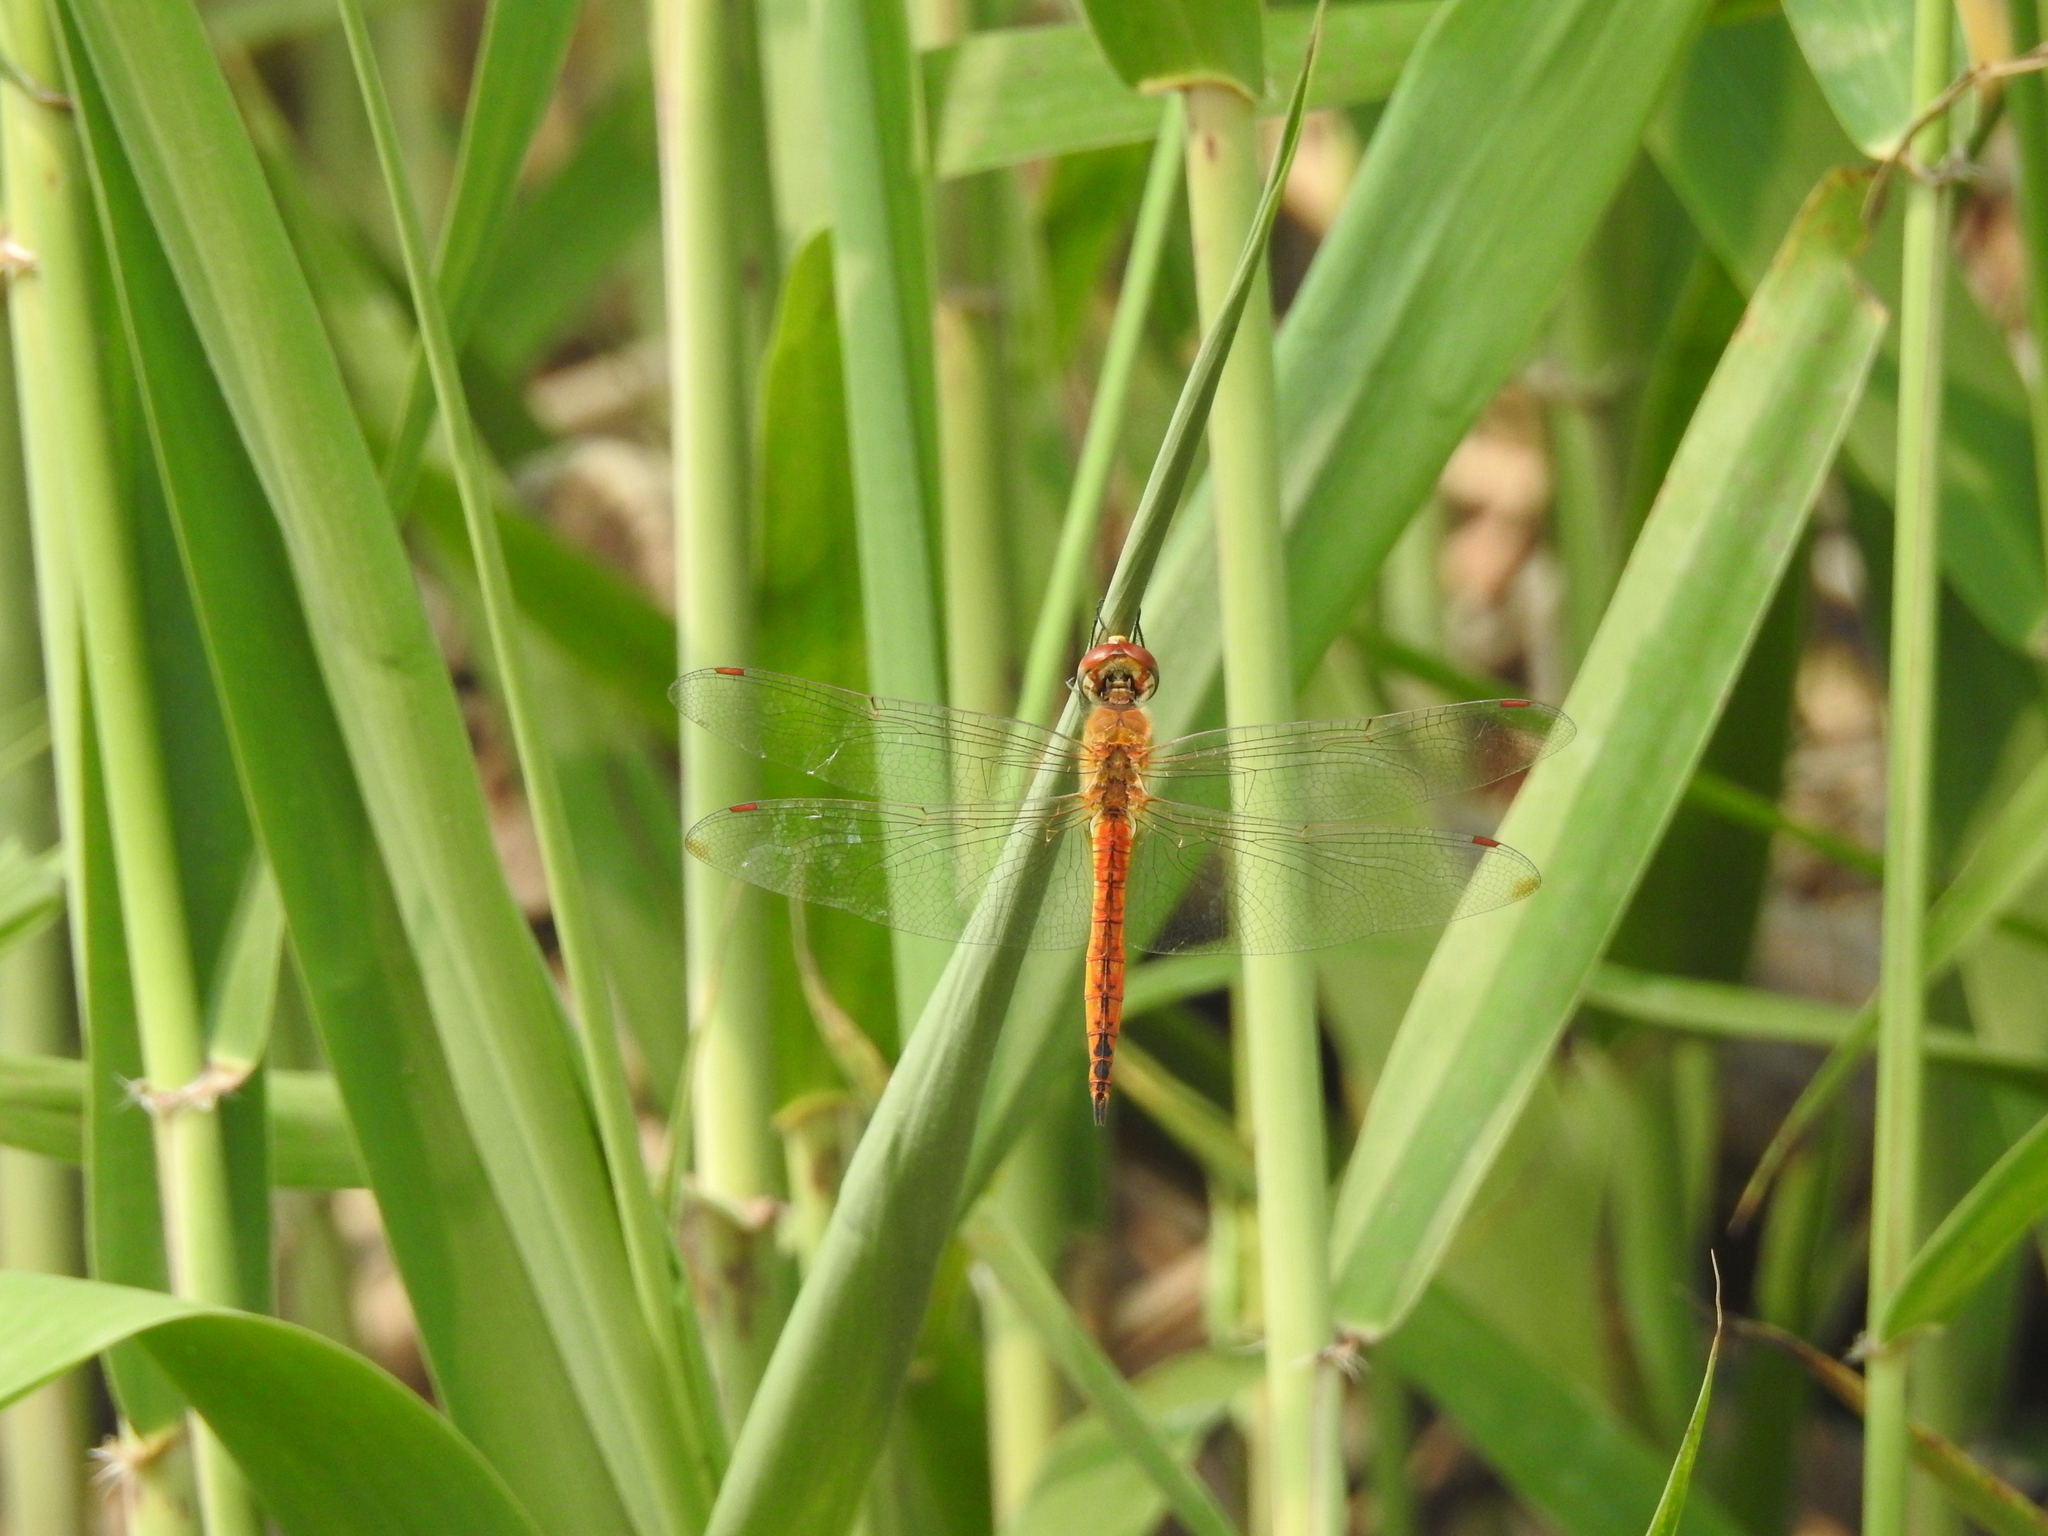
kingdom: Animalia
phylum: Arthropoda
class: Insecta
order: Odonata
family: Libellulidae
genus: Pantala
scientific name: Pantala flavescens
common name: Wandering glider
